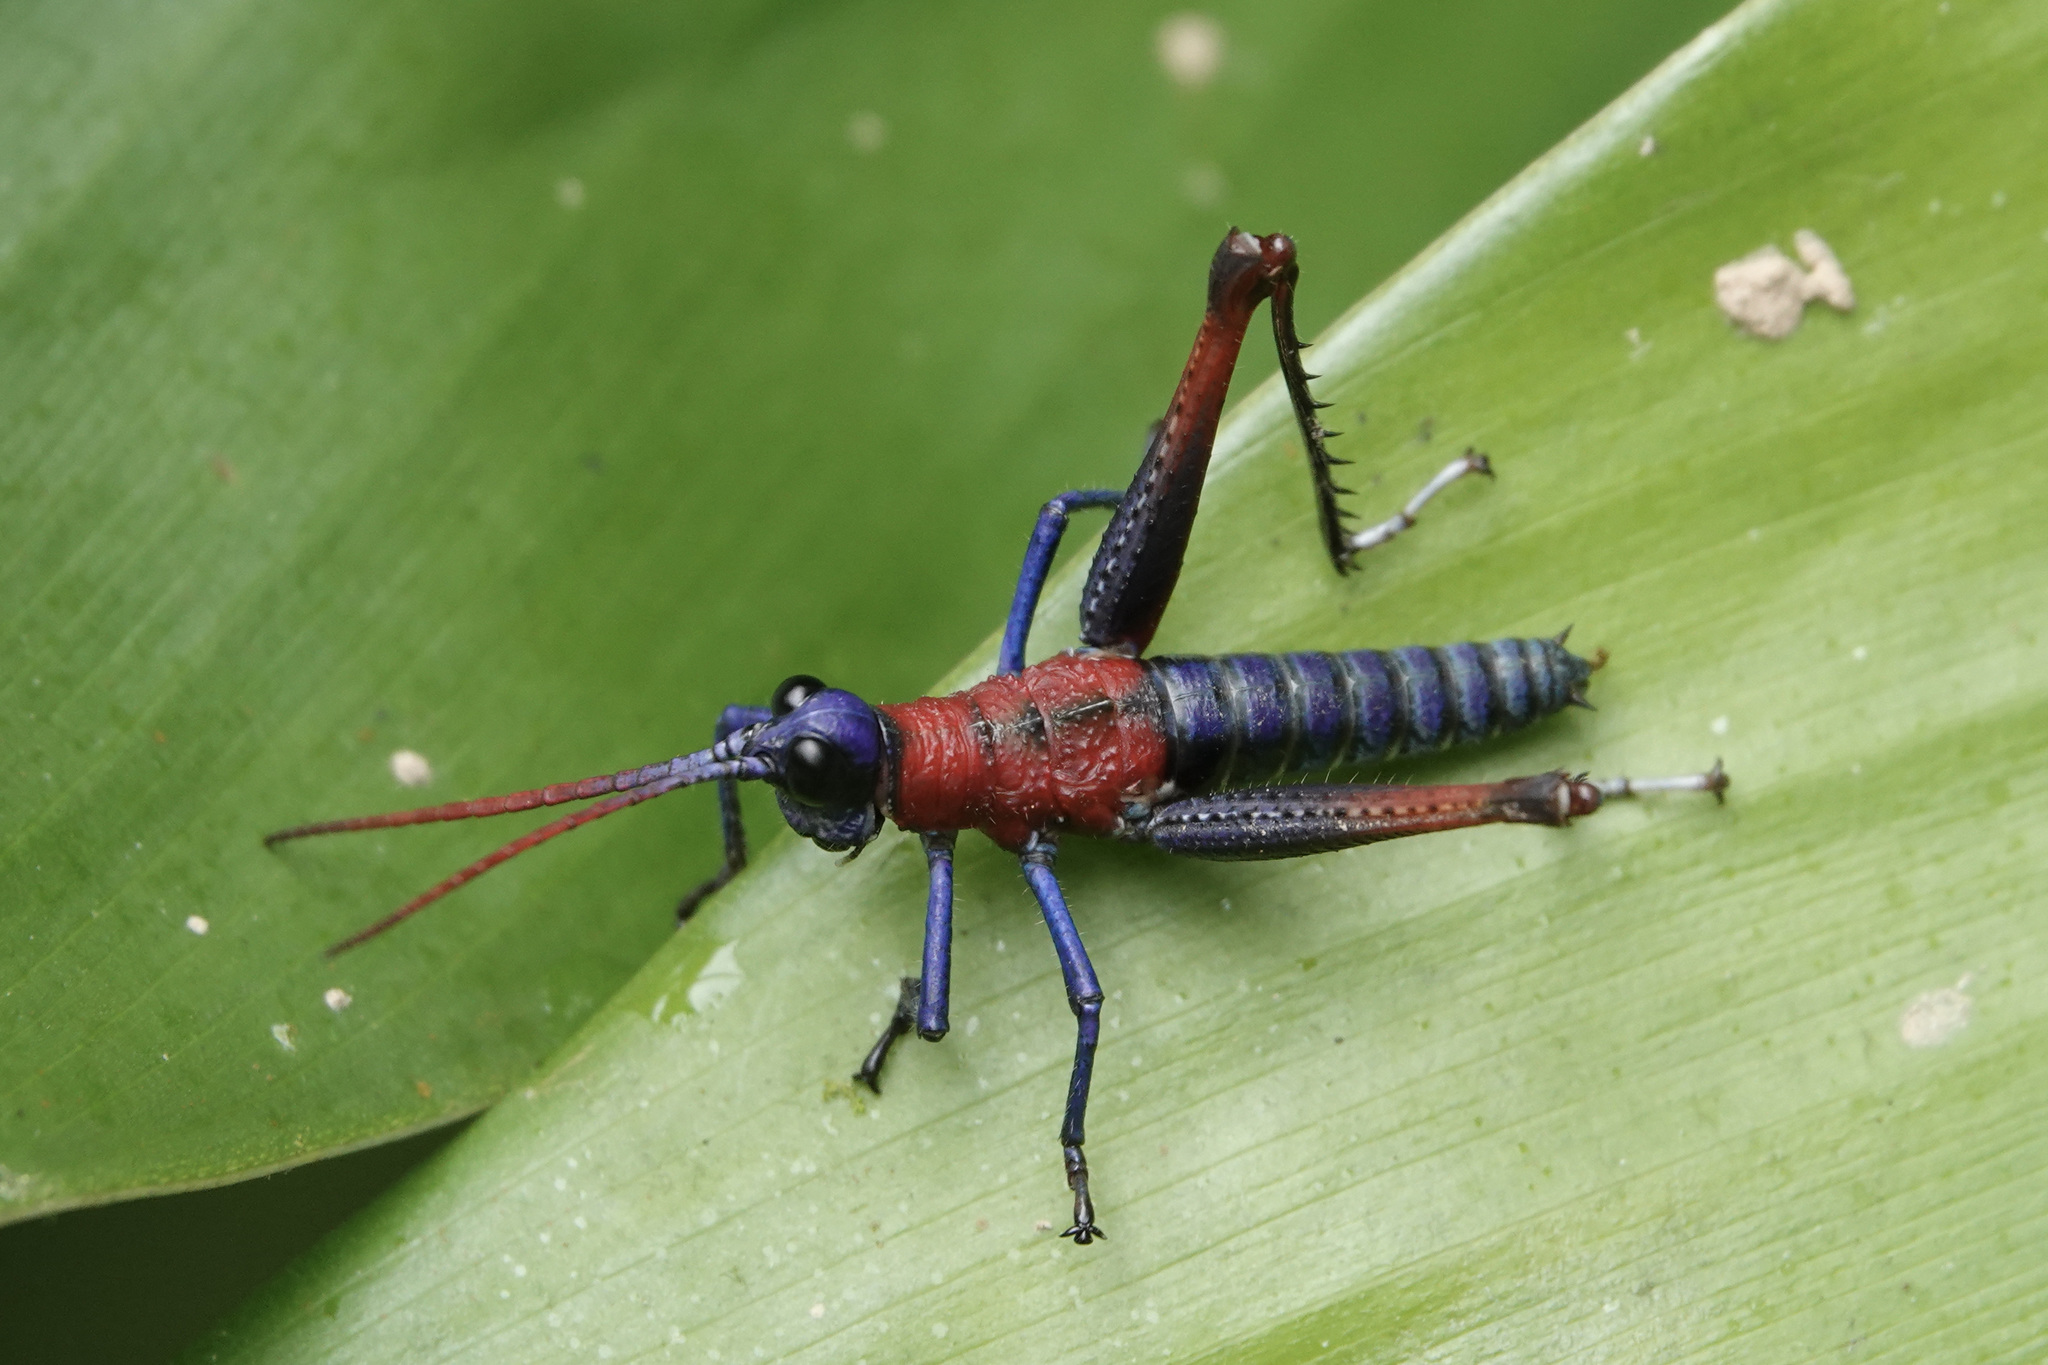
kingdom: Animalia
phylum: Arthropoda
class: Insecta
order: Orthoptera
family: Acrididae
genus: Opaon
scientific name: Opaon varicolor
